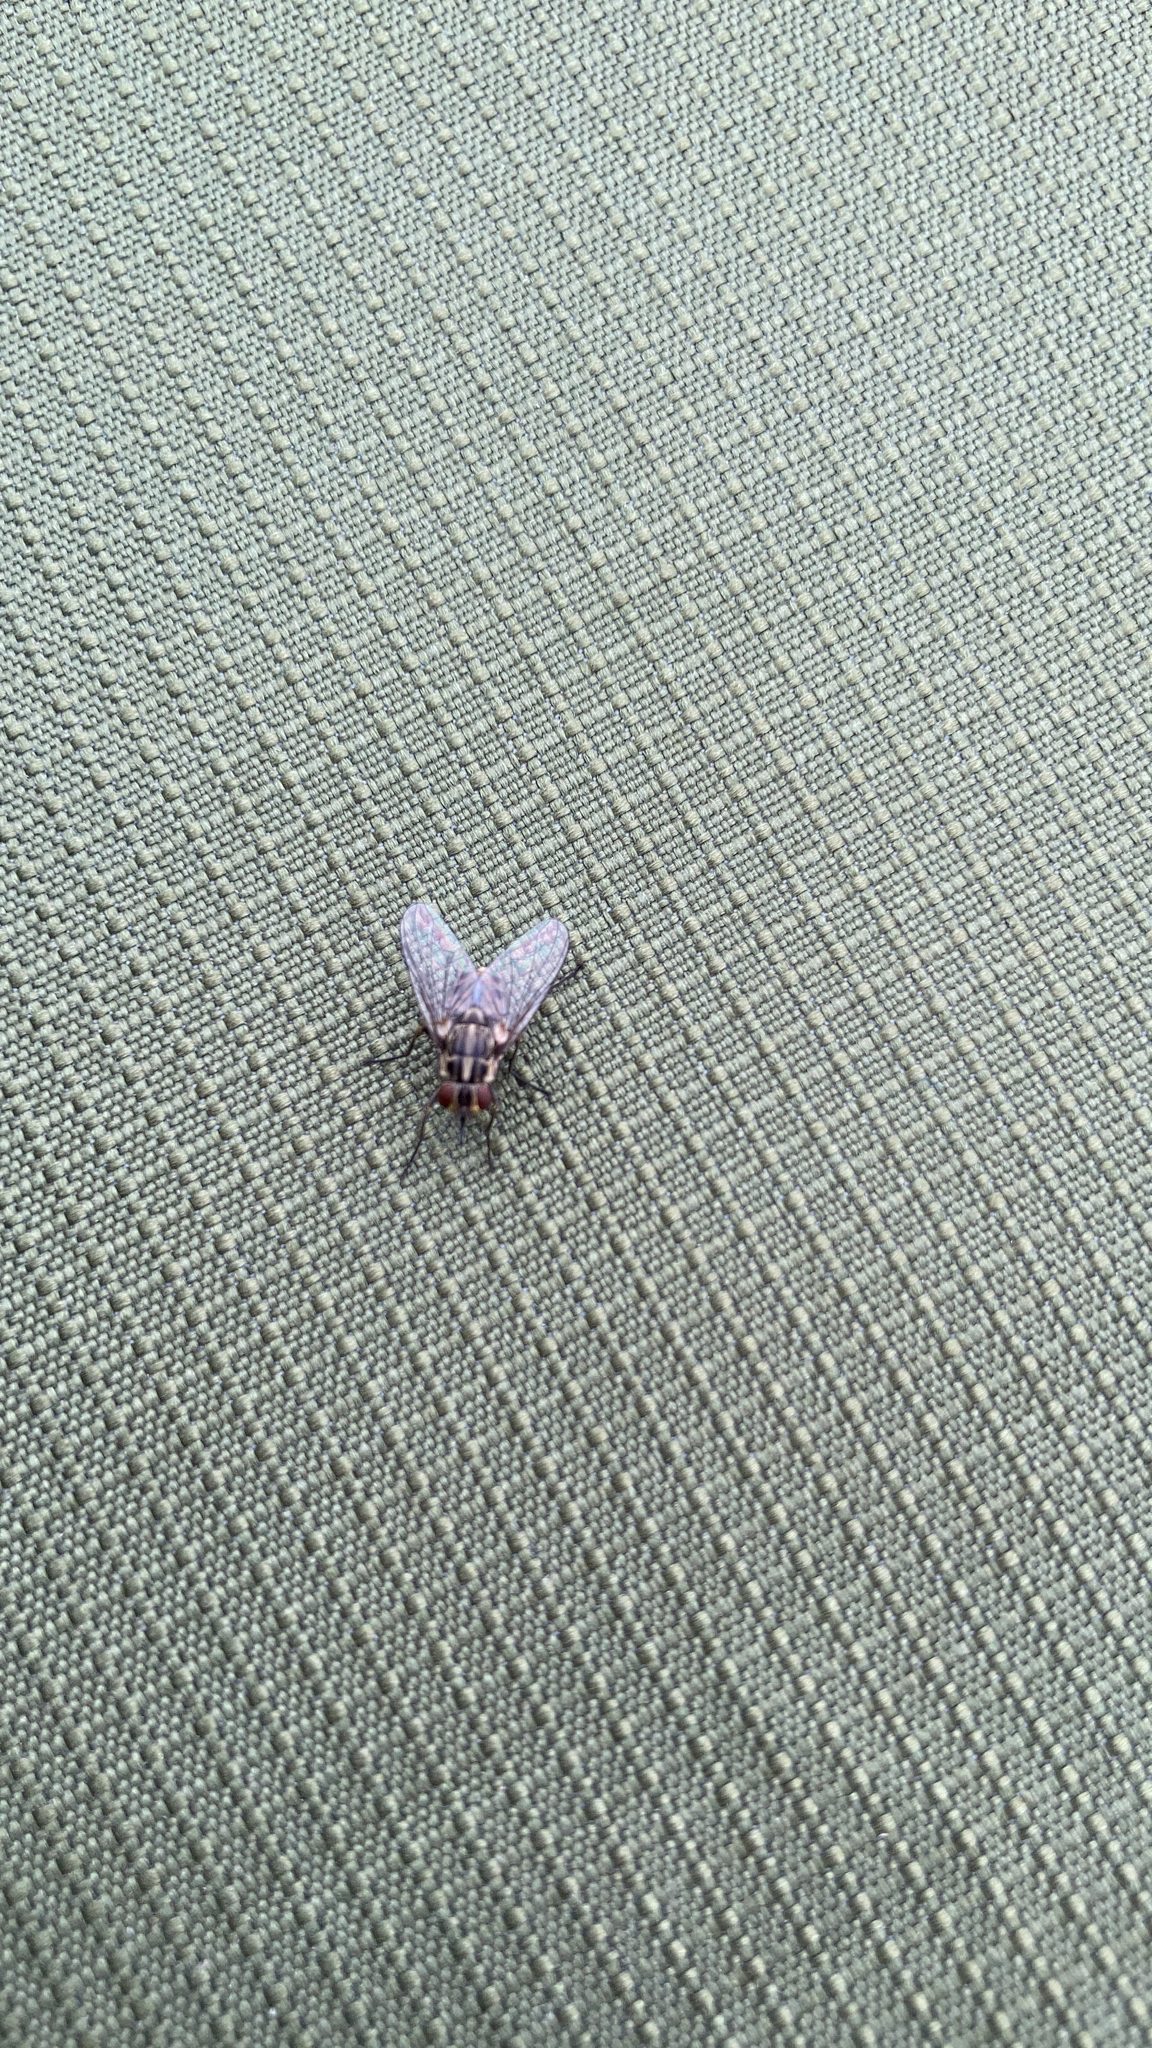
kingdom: Animalia
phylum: Arthropoda
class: Insecta
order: Diptera
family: Muscidae
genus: Stomoxys
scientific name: Stomoxys calcitrans
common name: Stable fly
